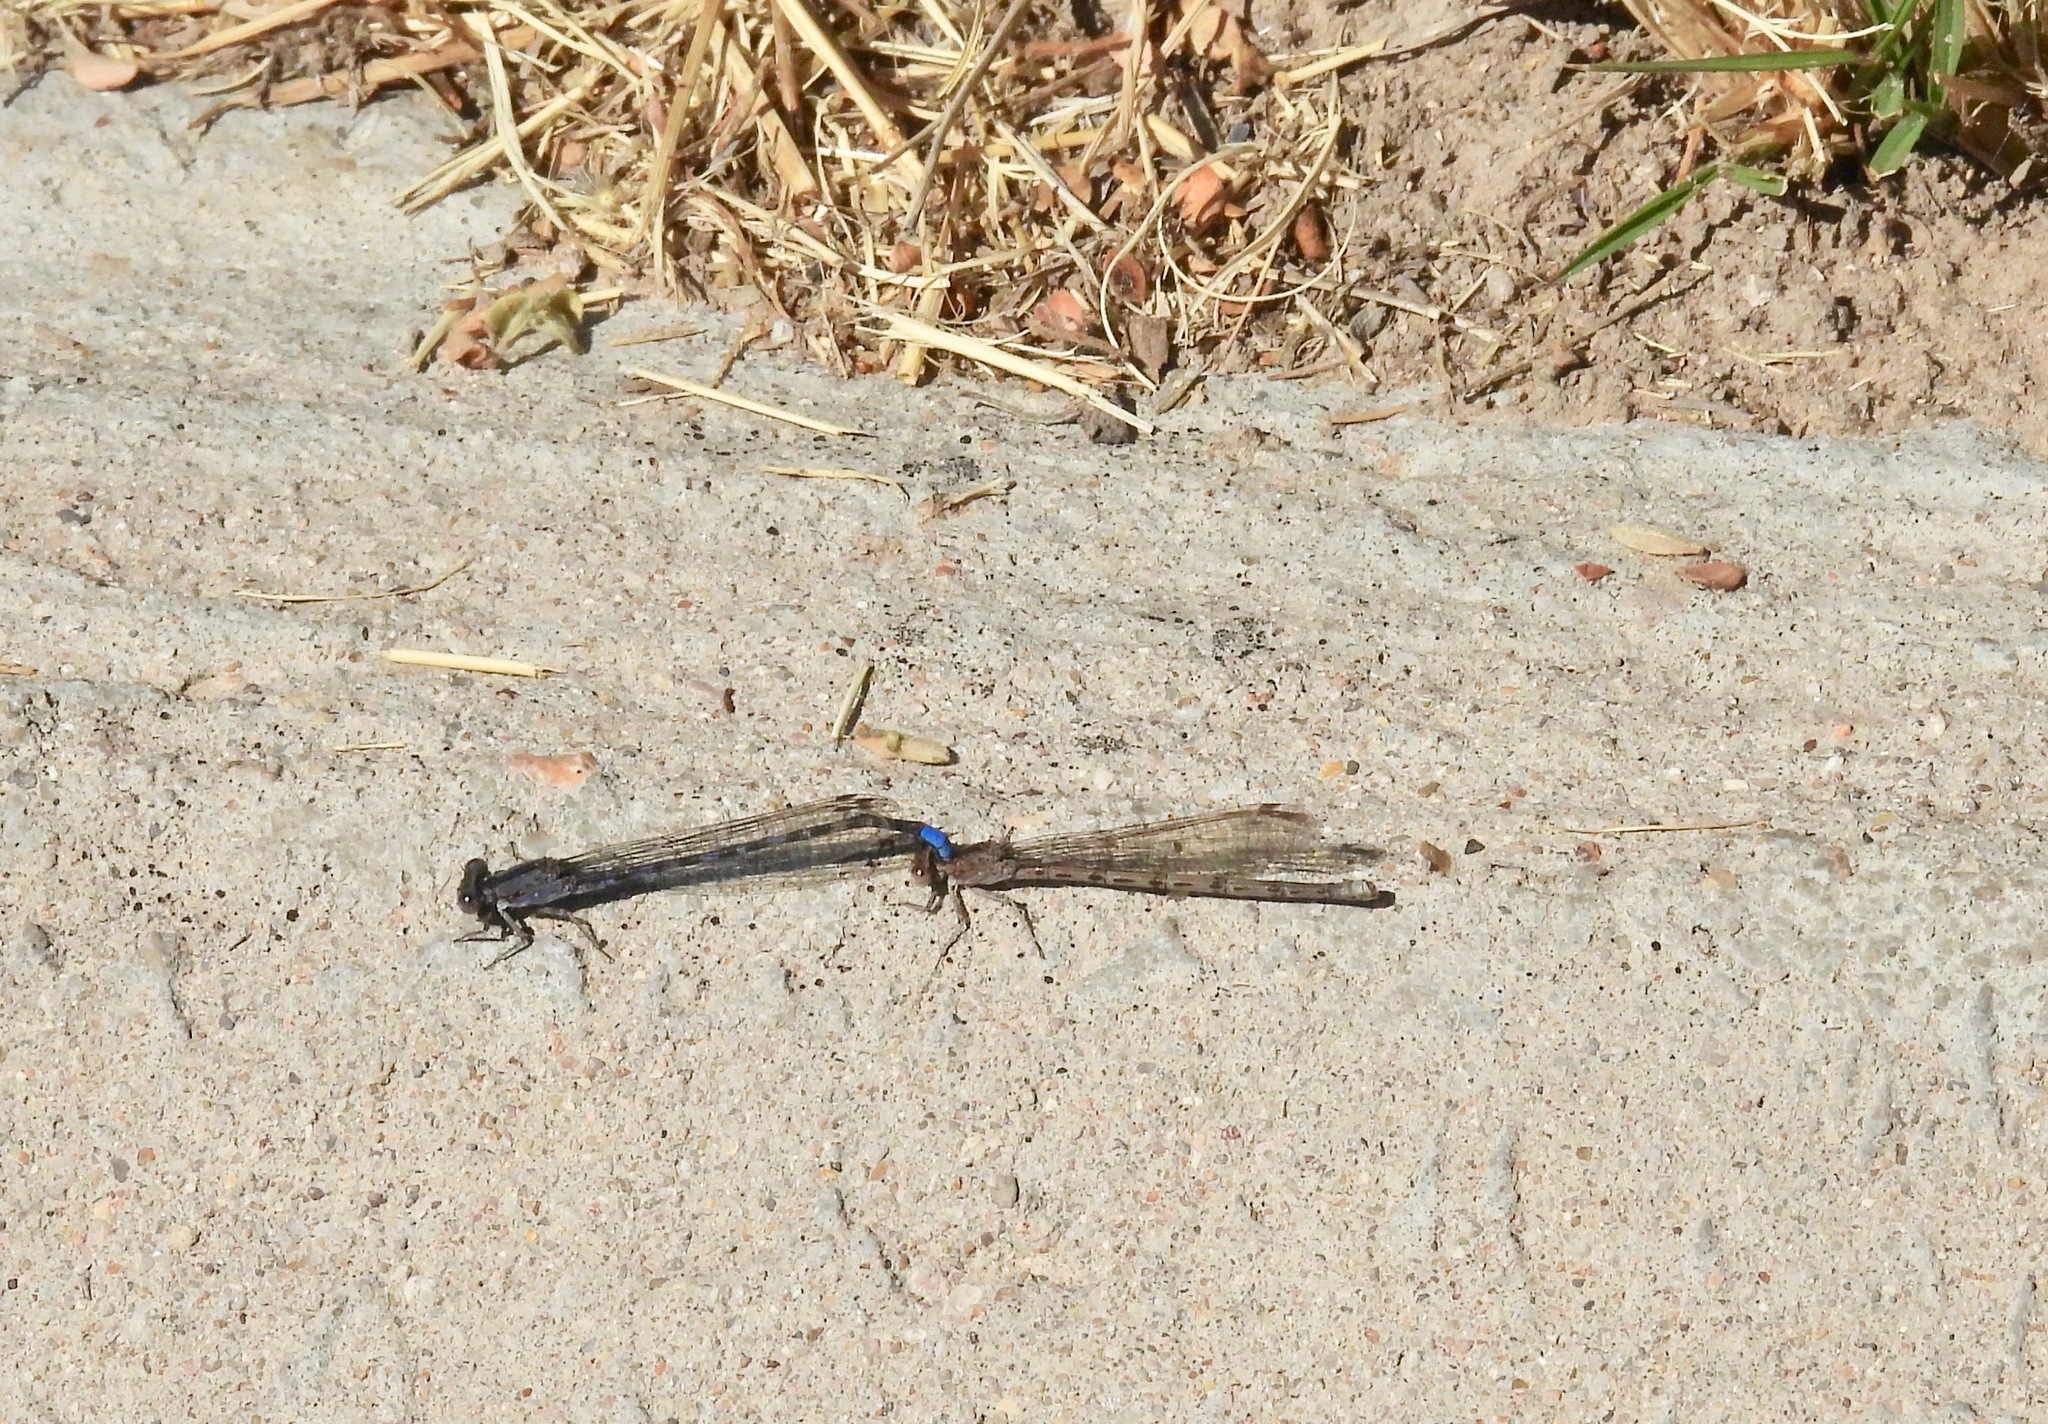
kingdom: Animalia
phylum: Arthropoda
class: Insecta
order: Odonata
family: Coenagrionidae
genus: Argia
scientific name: Argia immunda
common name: Kiowa dancer
